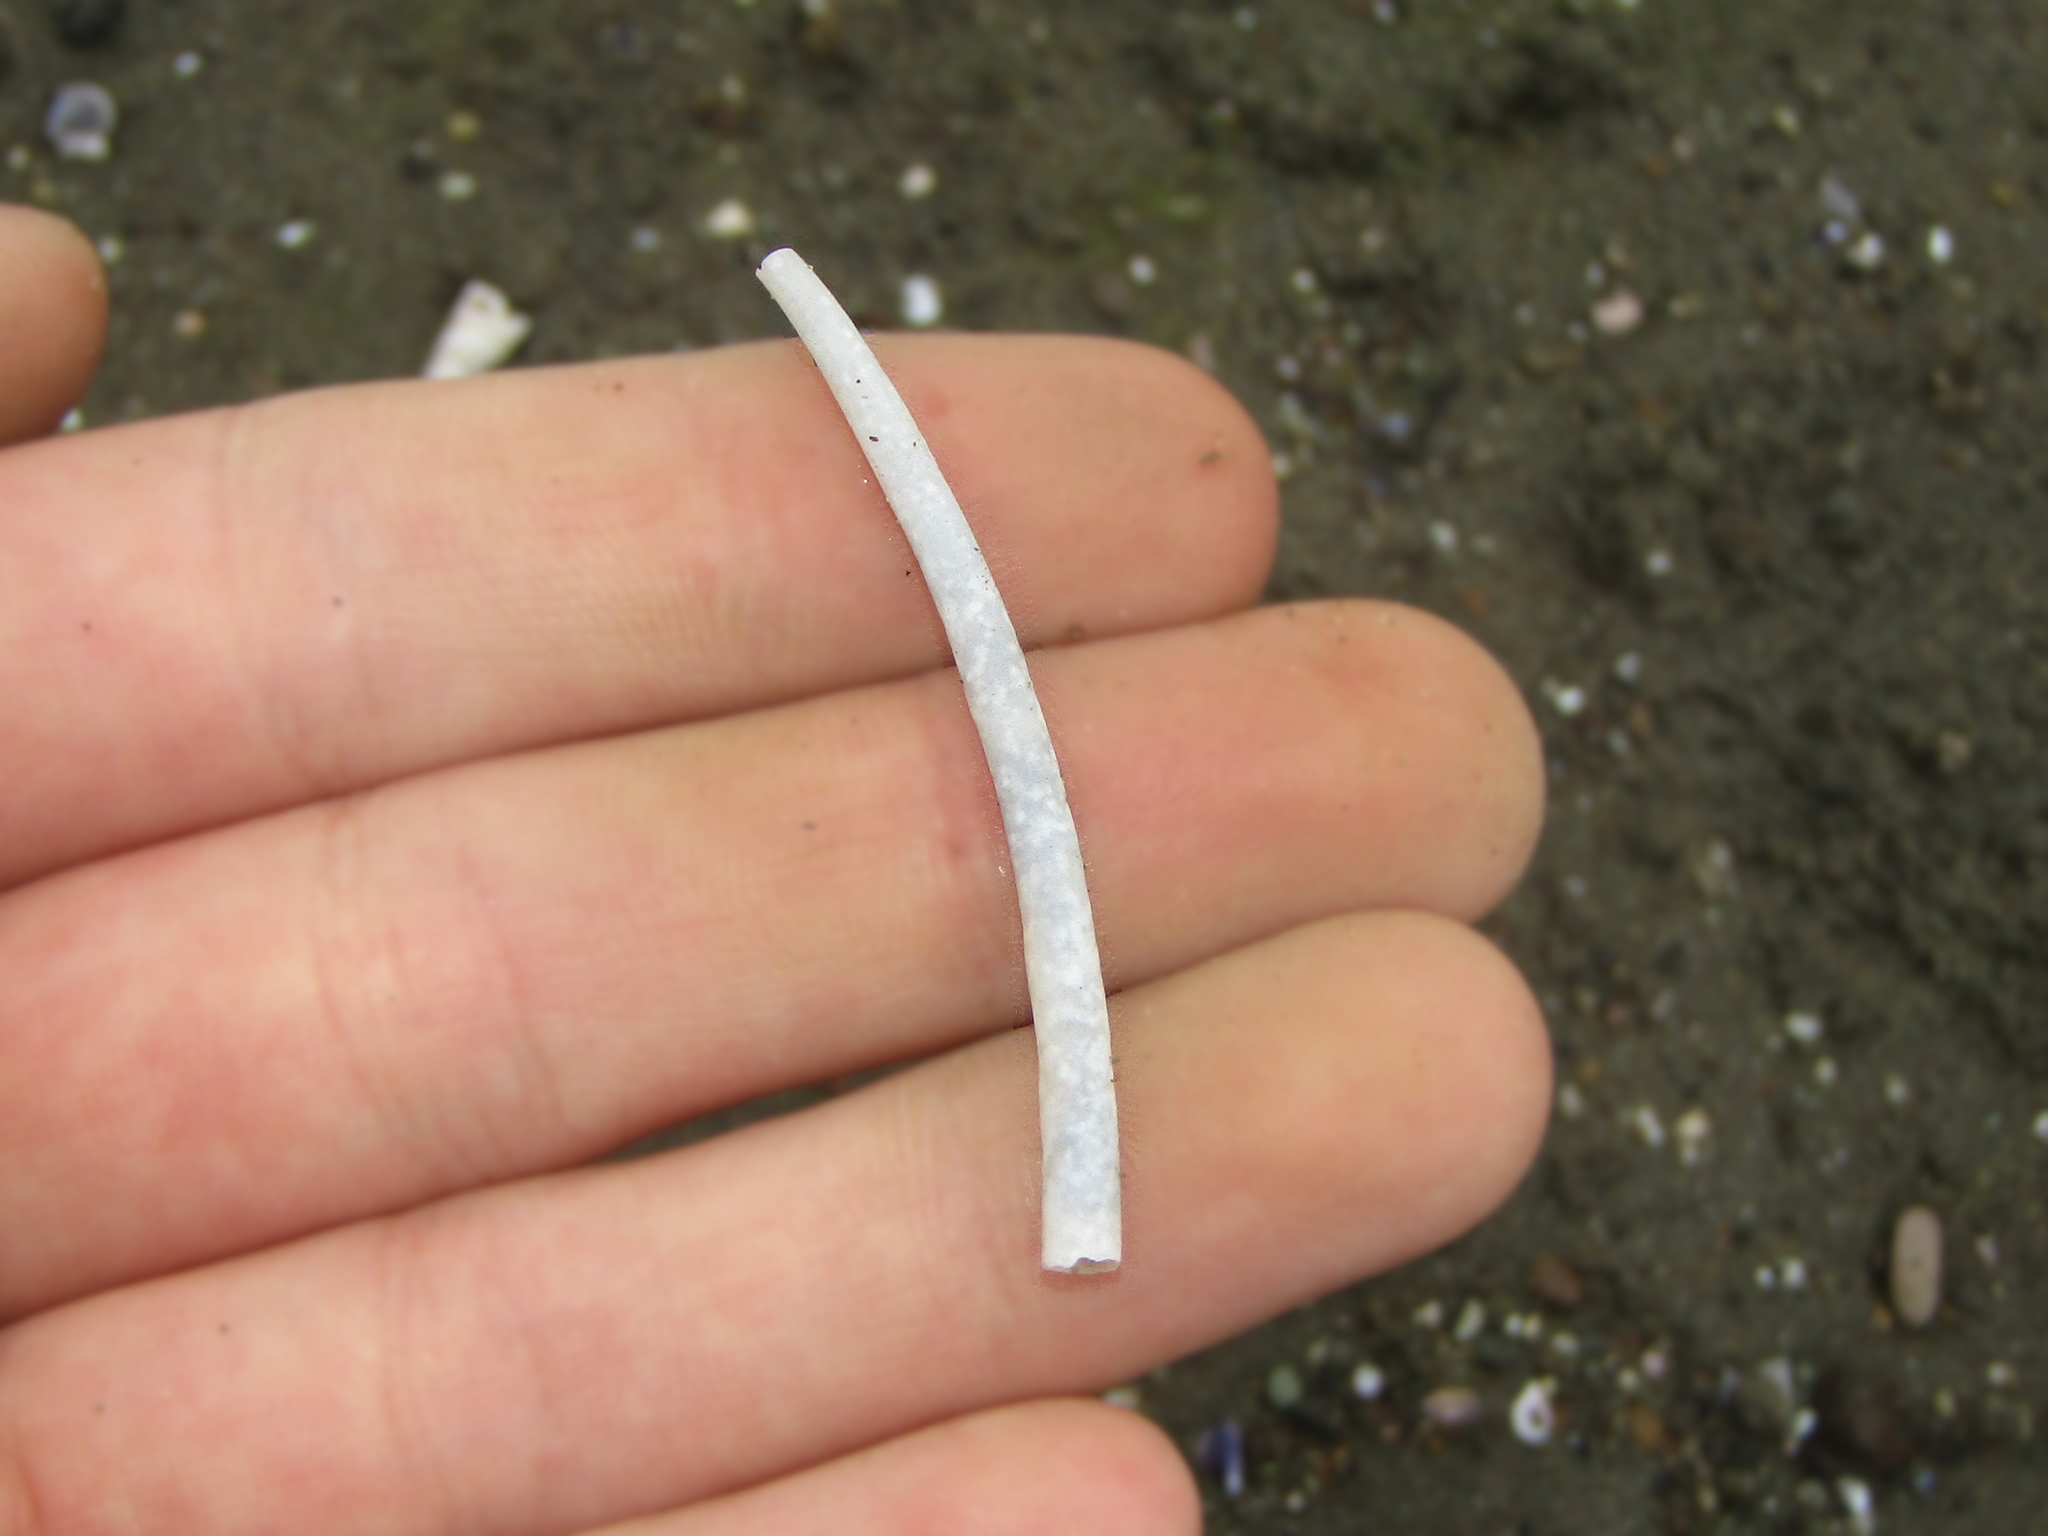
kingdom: Animalia
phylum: Mollusca
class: Scaphopoda
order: Dentaliida
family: Dentaliidae
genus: Antalis
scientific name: Antalis nana
